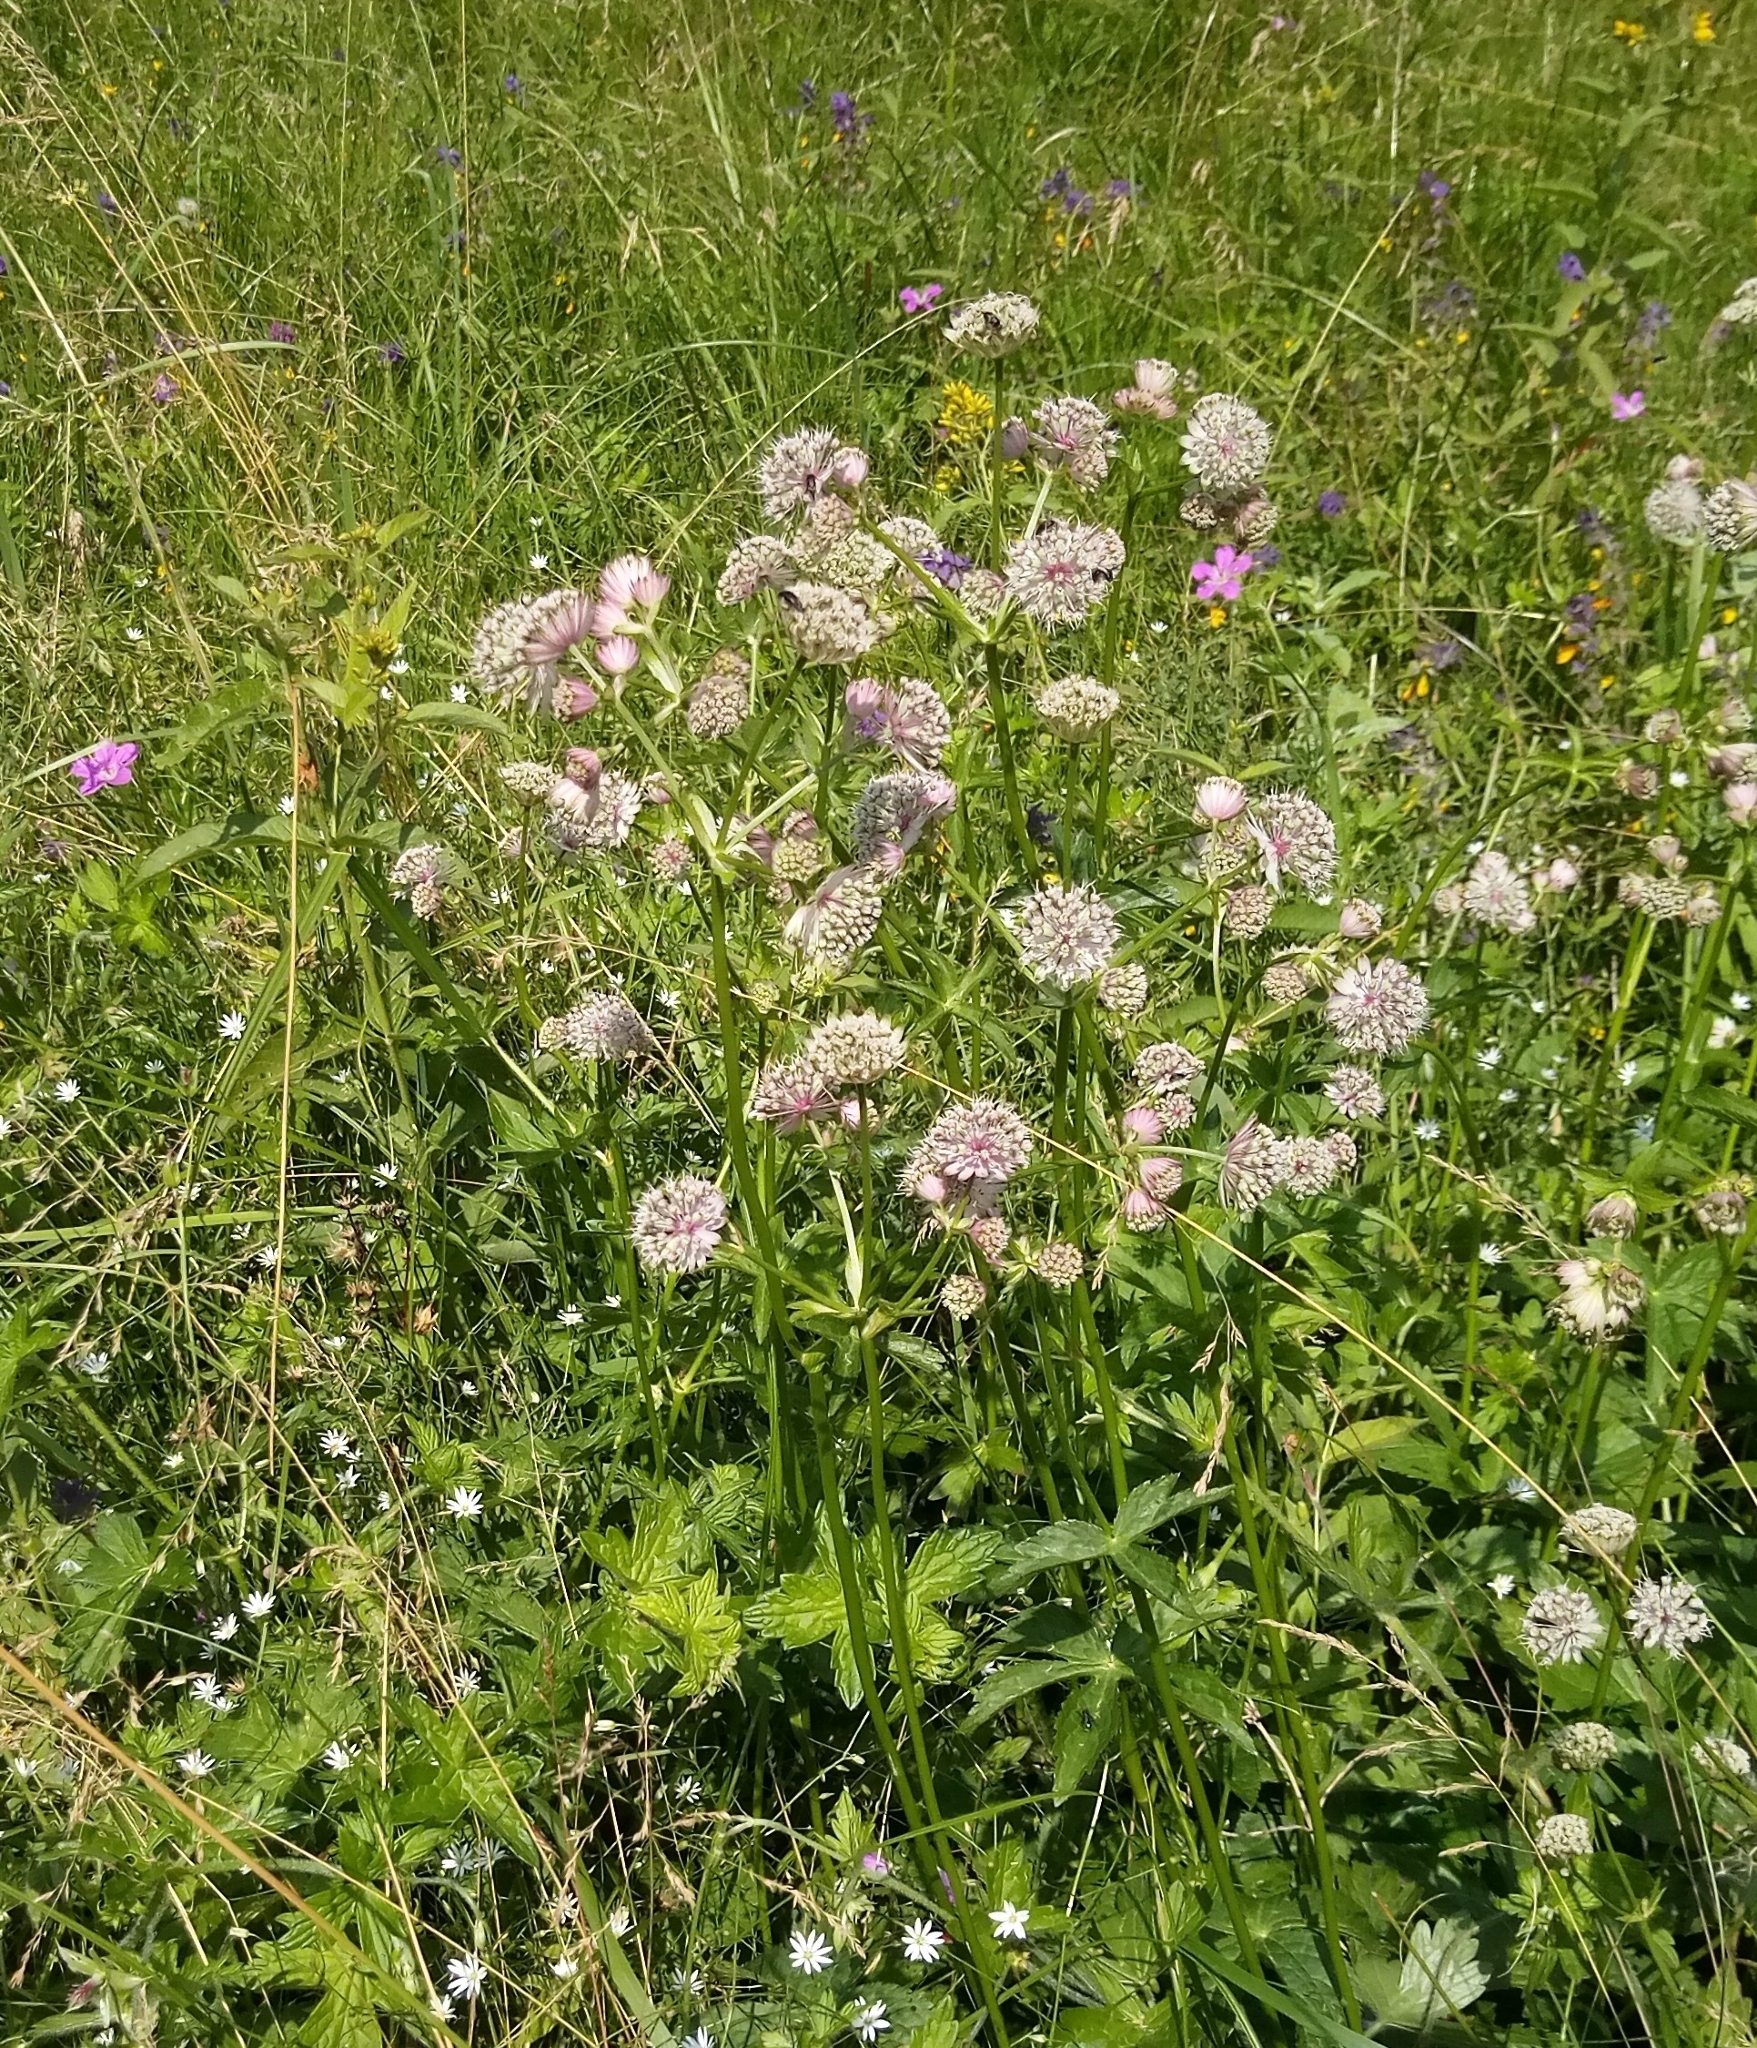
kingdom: Plantae
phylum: Tracheophyta
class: Magnoliopsida
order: Apiales
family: Apiaceae
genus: Astrantia
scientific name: Astrantia major
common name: Greater masterwort
